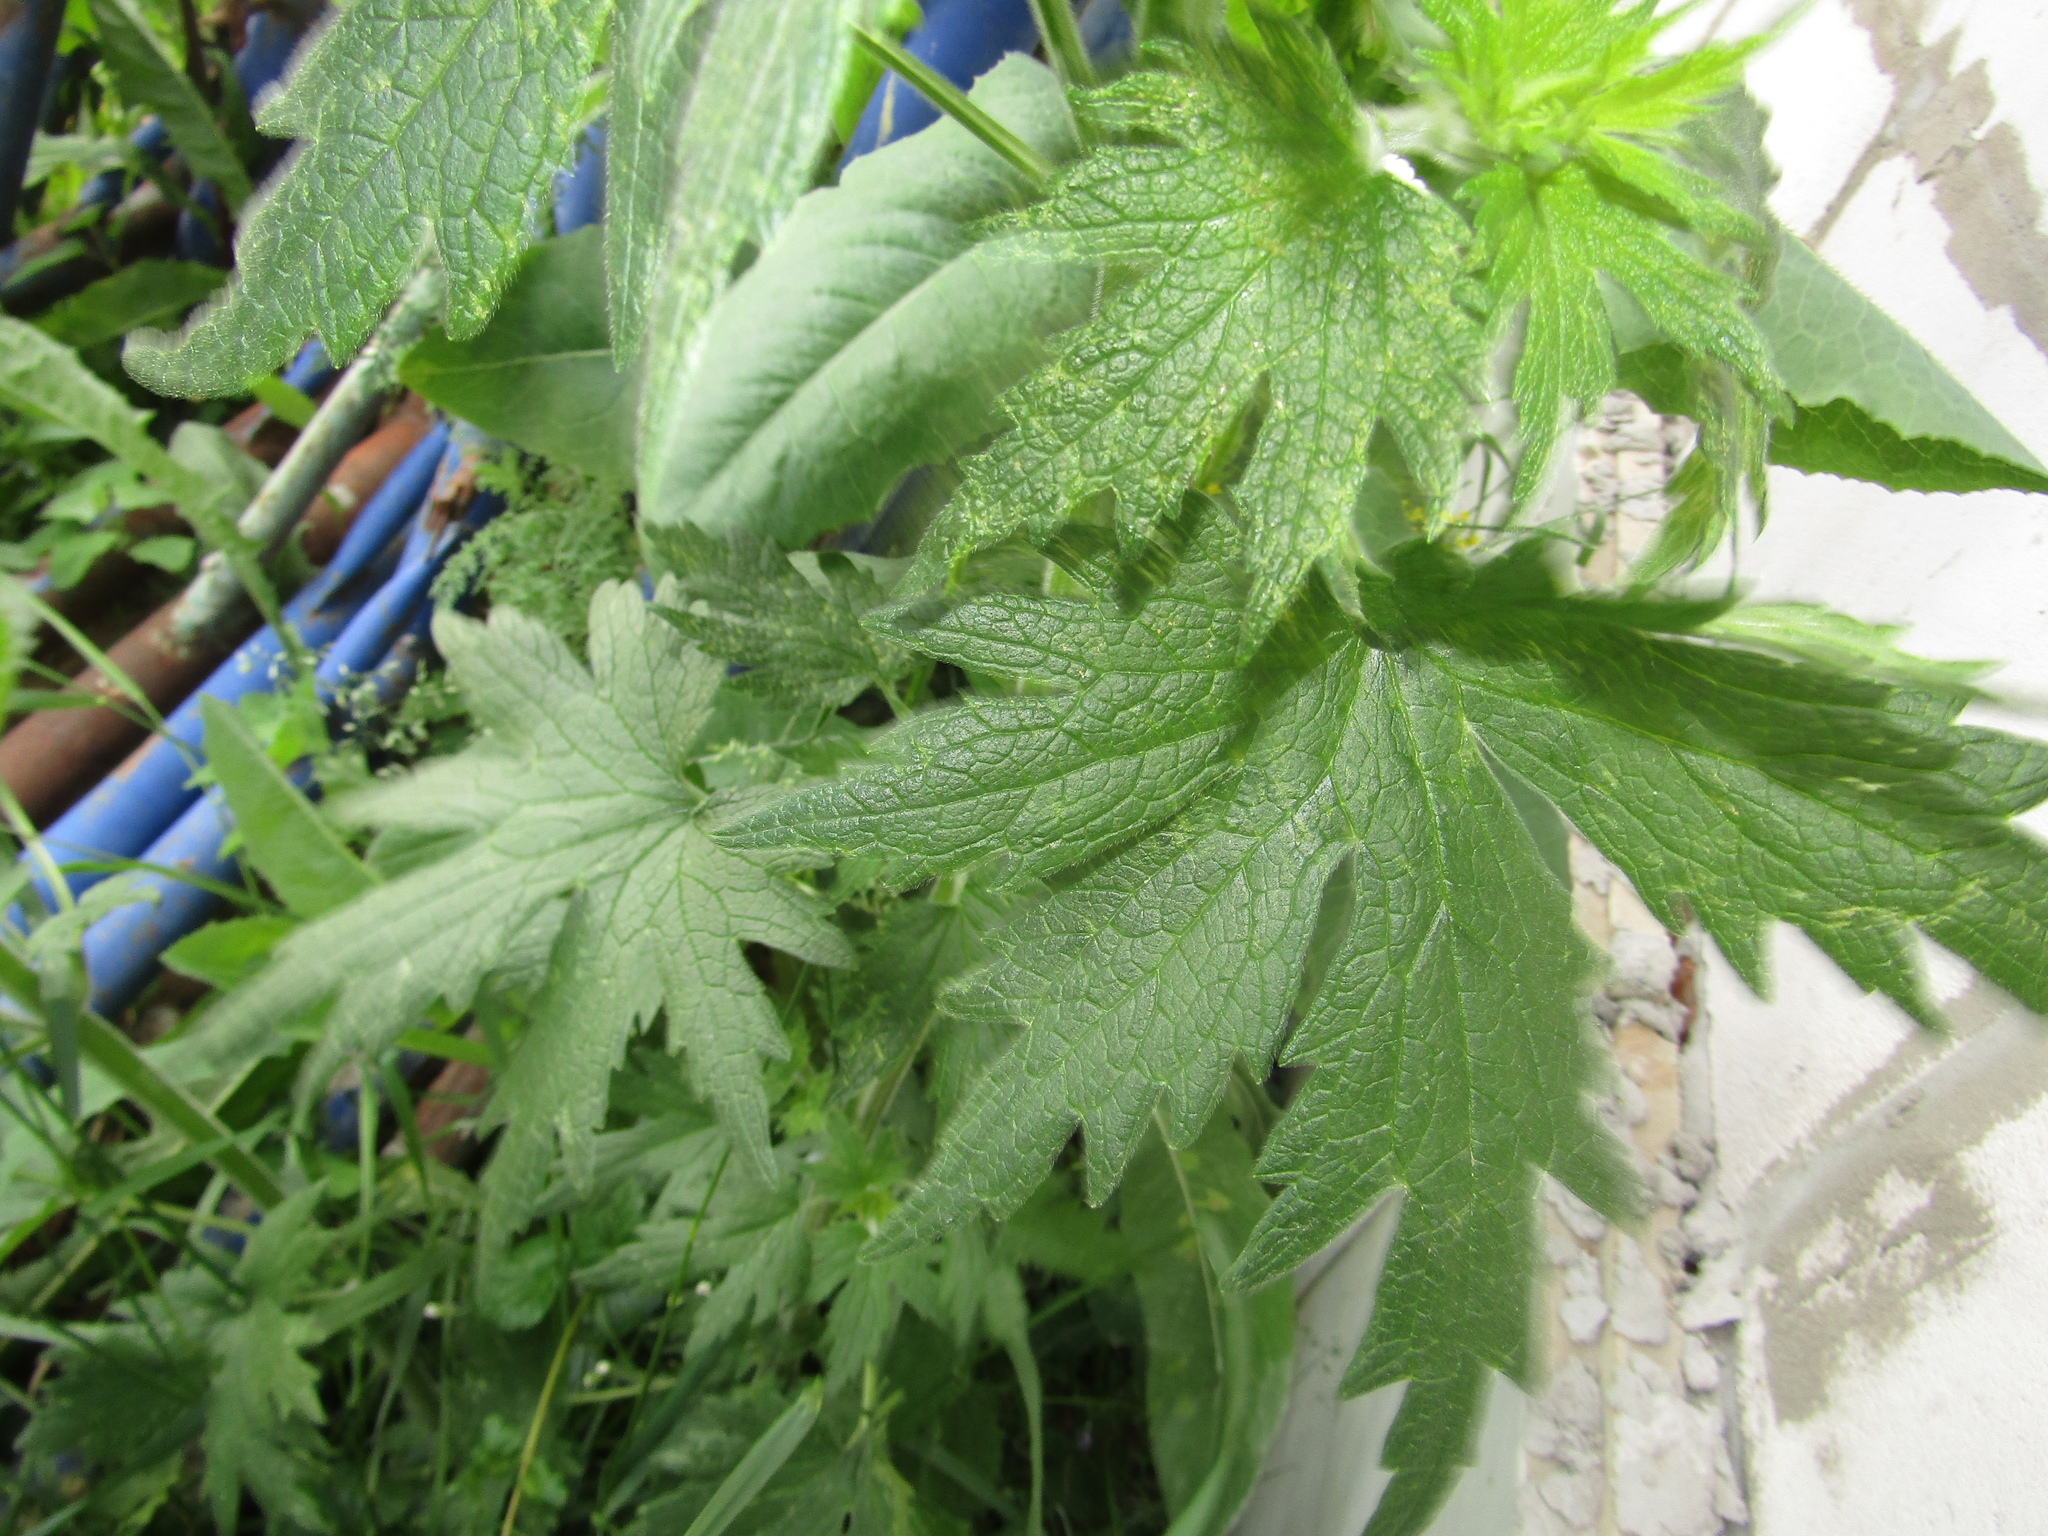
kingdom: Plantae
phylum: Tracheophyta
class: Magnoliopsida
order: Lamiales
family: Lamiaceae
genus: Leonurus
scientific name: Leonurus quinquelobatus
